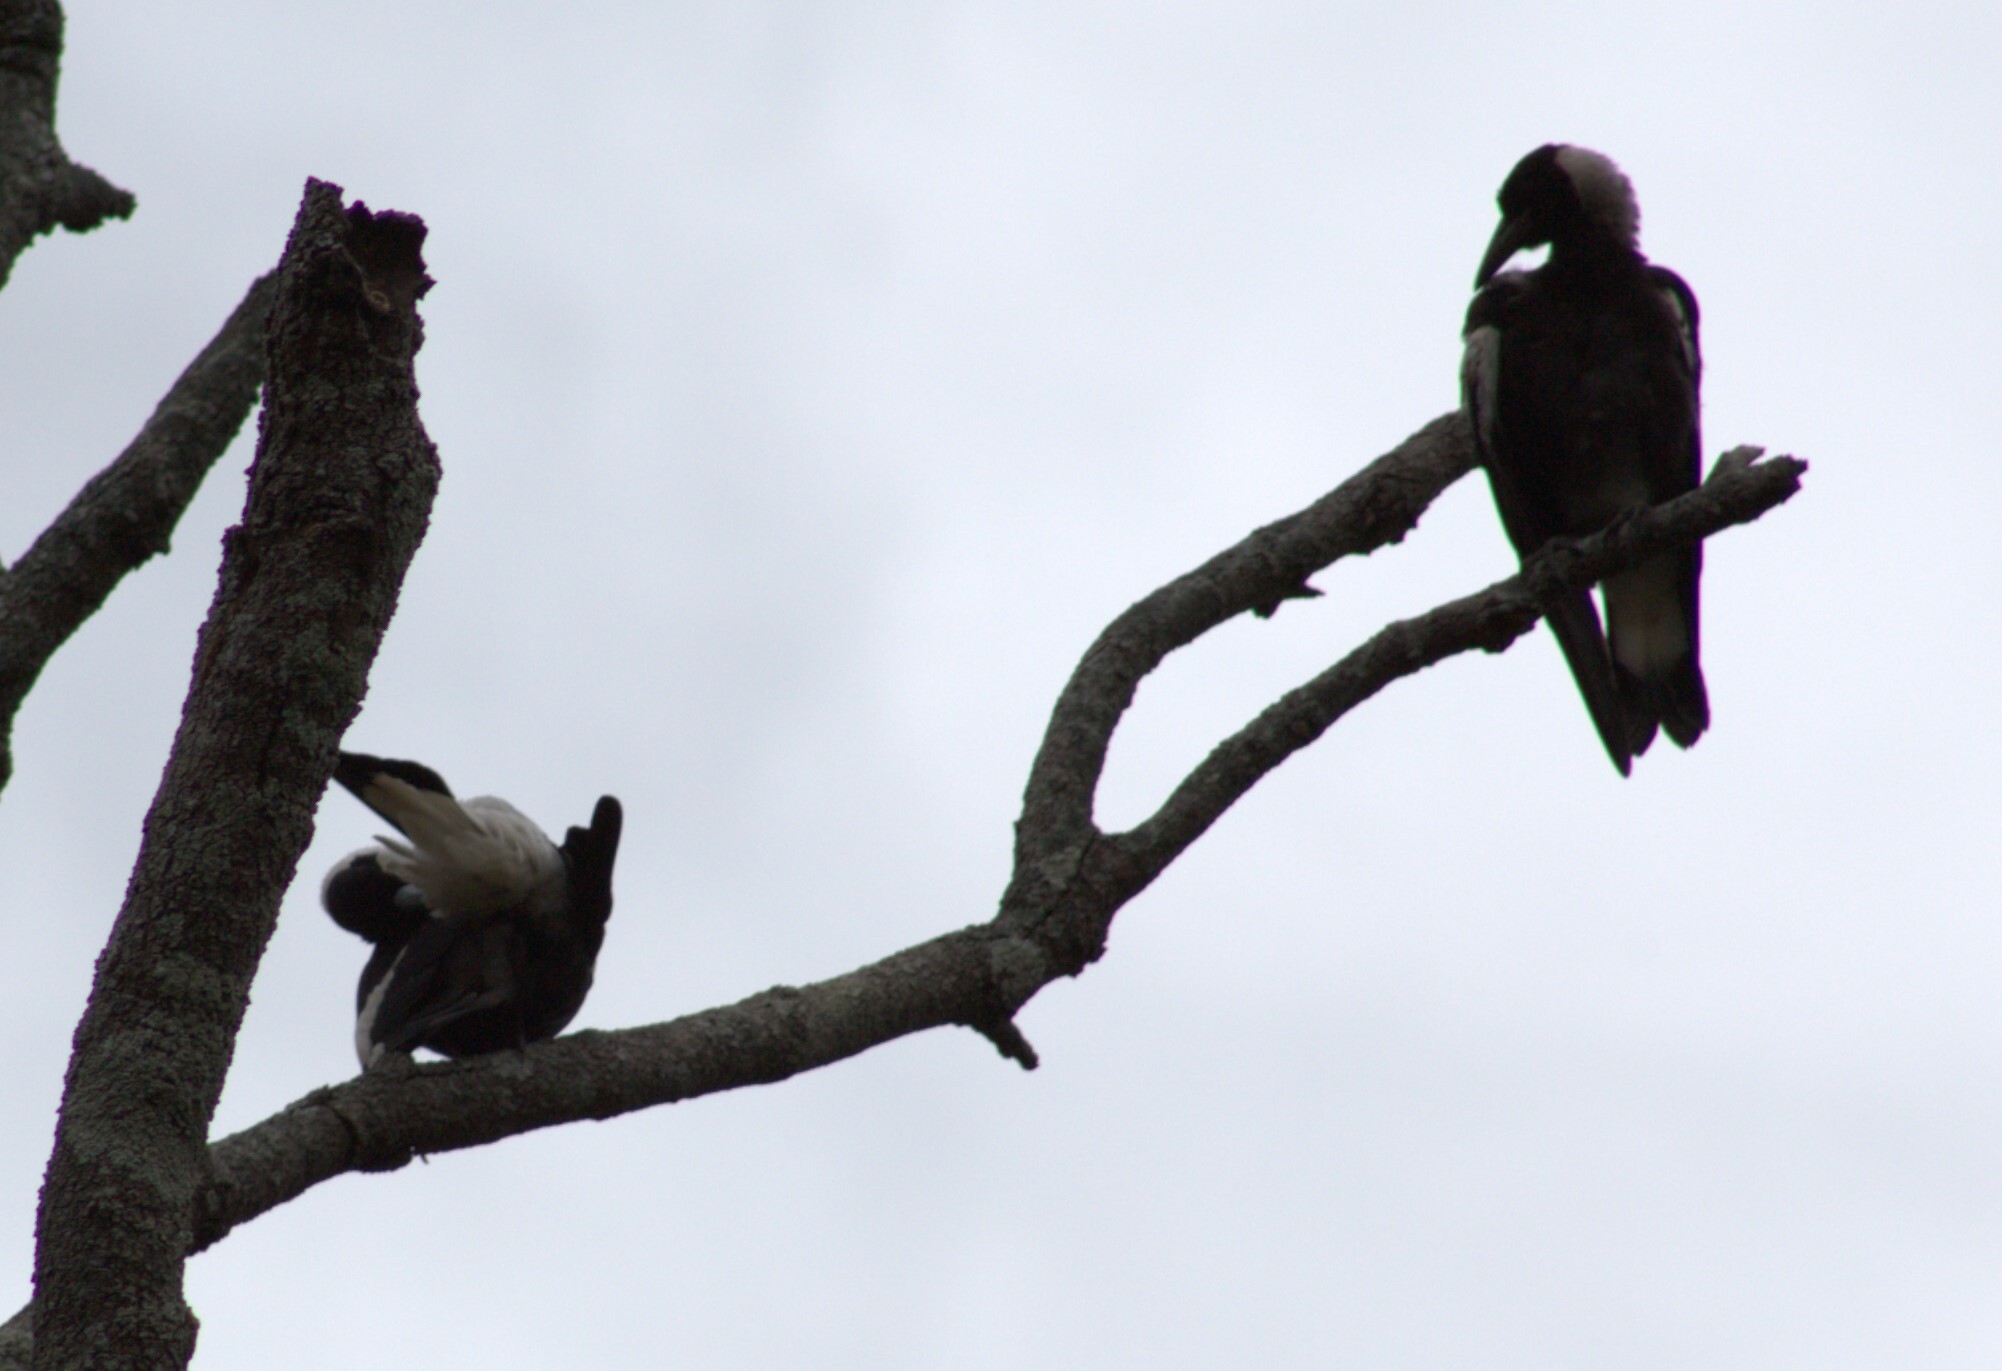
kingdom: Animalia
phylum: Chordata
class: Aves
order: Passeriformes
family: Cracticidae
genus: Gymnorhina
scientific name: Gymnorhina tibicen
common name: Australian magpie
